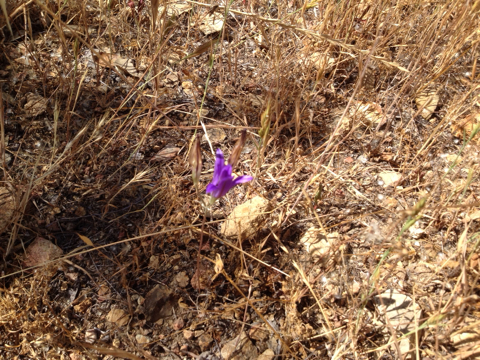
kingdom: Plantae
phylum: Tracheophyta
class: Liliopsida
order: Asparagales
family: Asparagaceae
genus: Brodiaea
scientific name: Brodiaea
